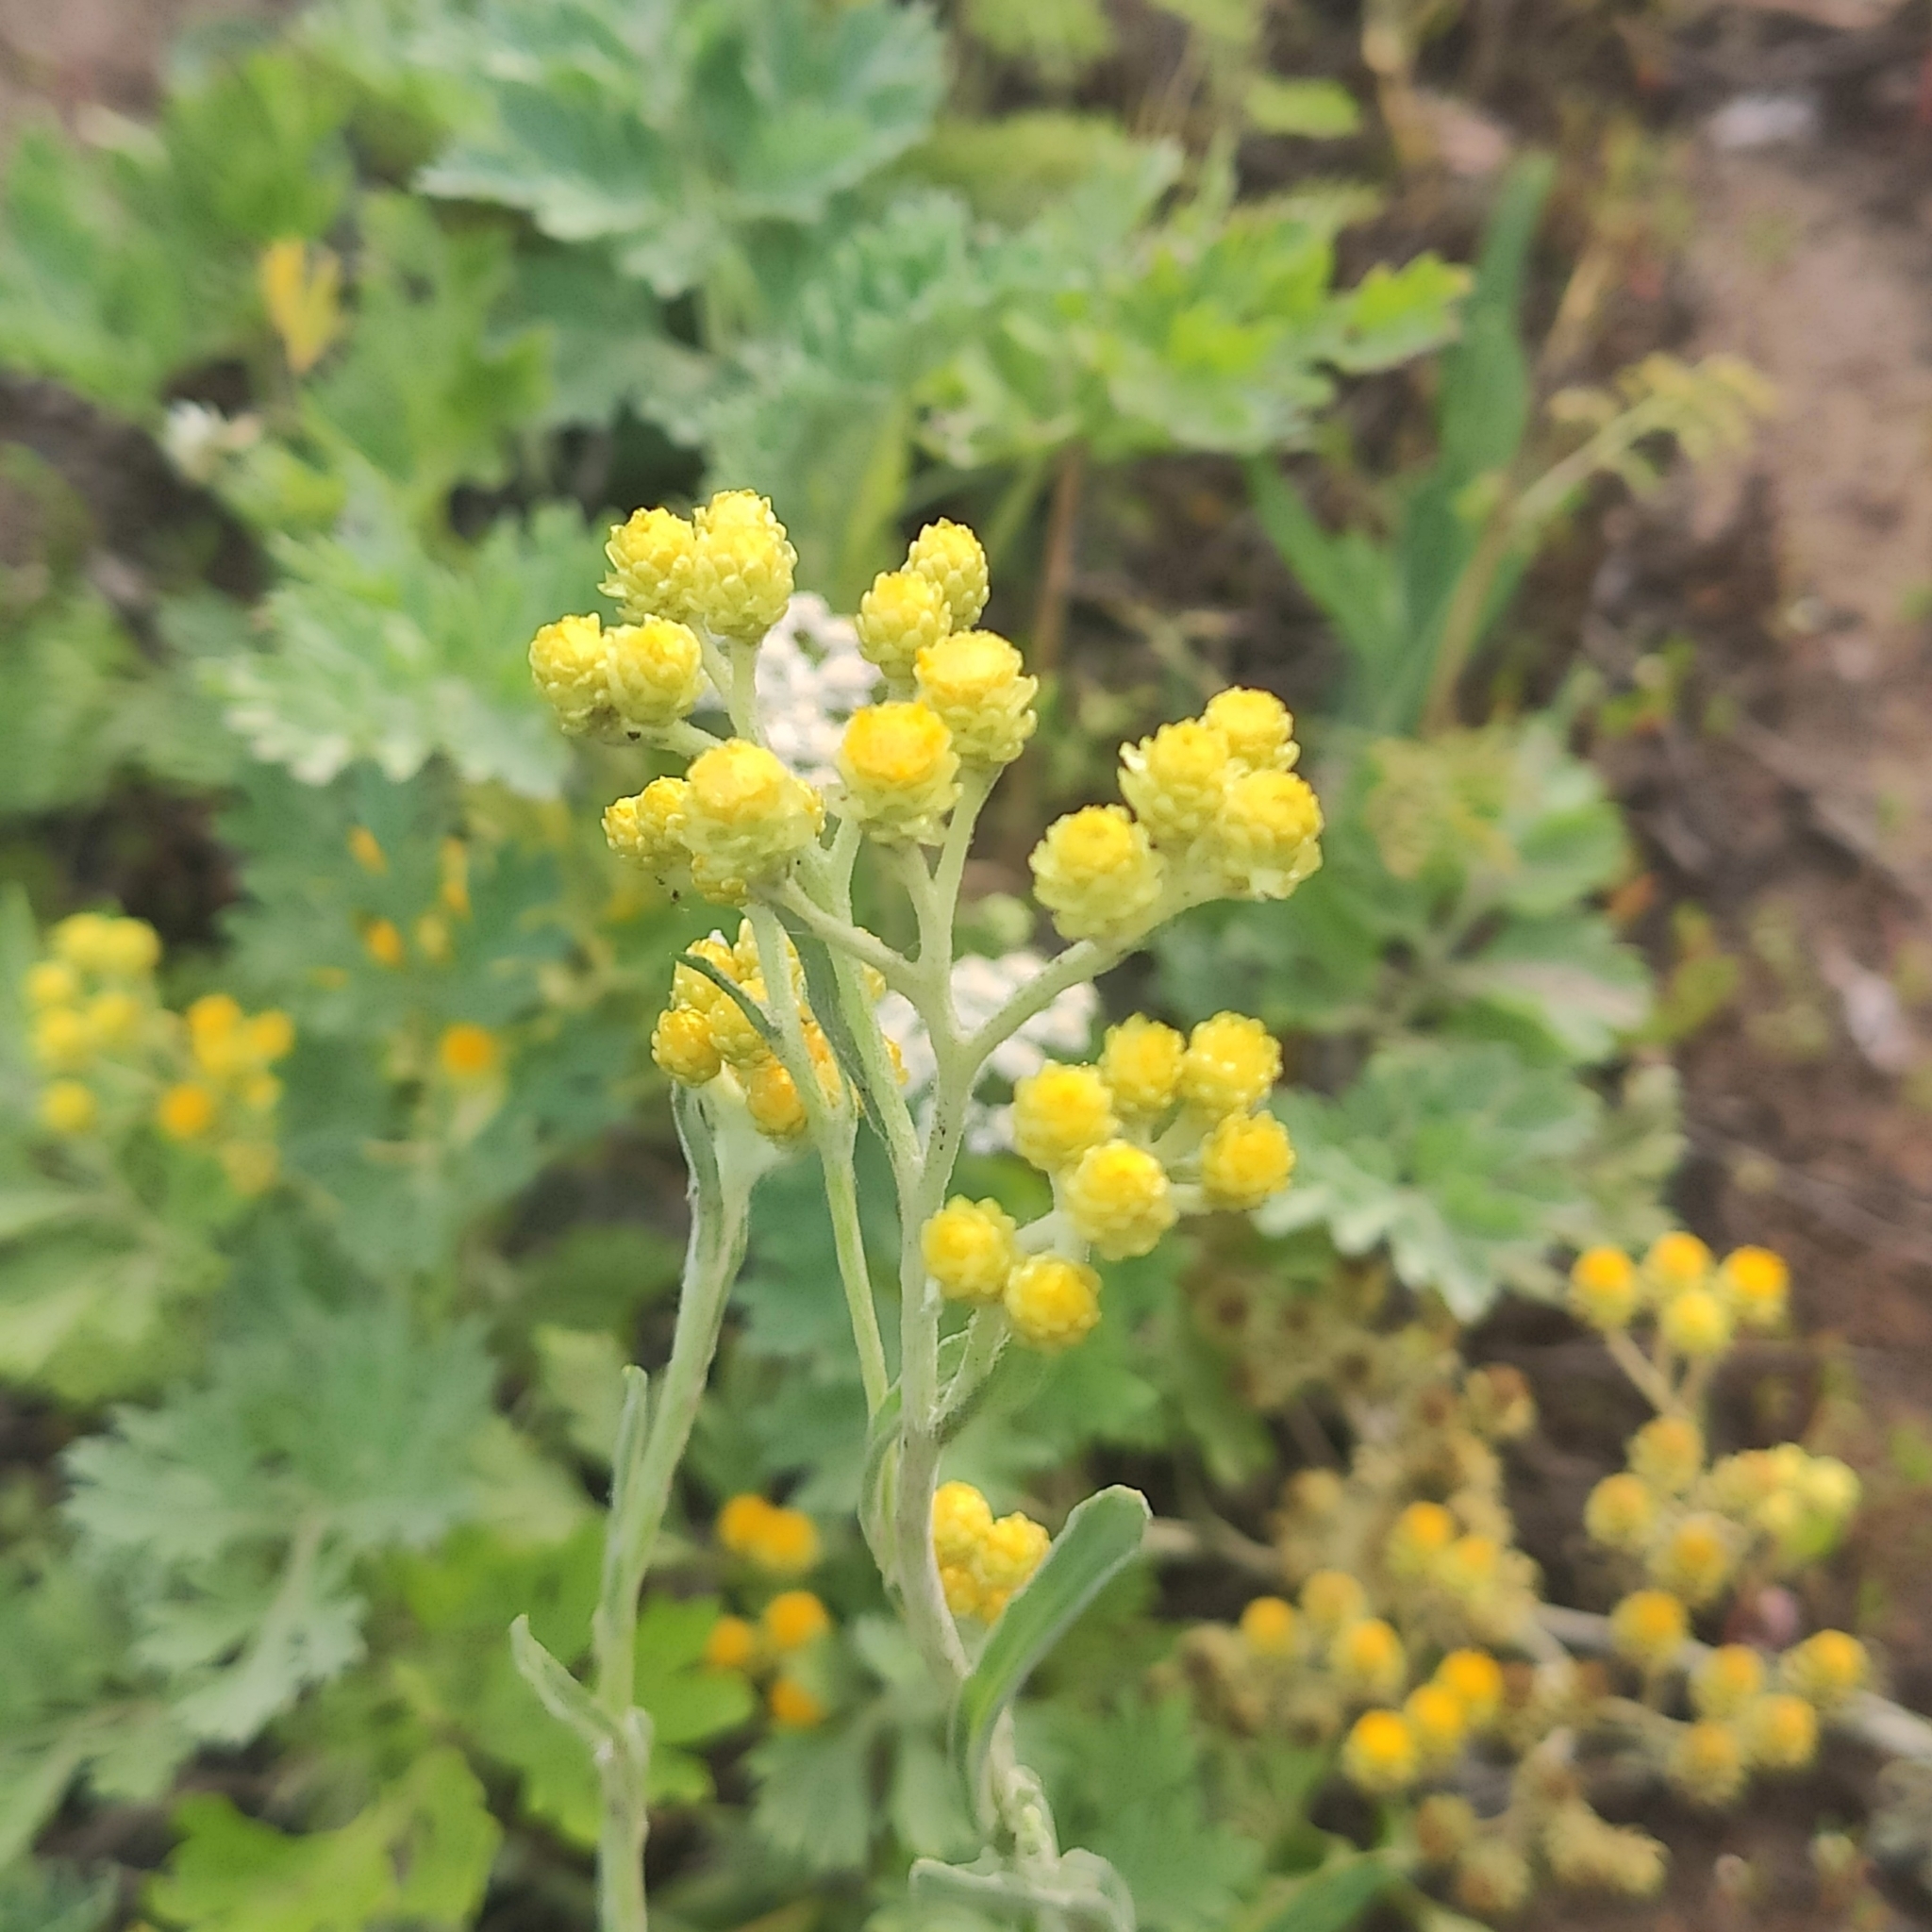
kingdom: Plantae
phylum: Tracheophyta
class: Magnoliopsida
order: Asterales
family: Asteraceae
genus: Helichrysum
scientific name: Helichrysum arenarium
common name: Strawflower
